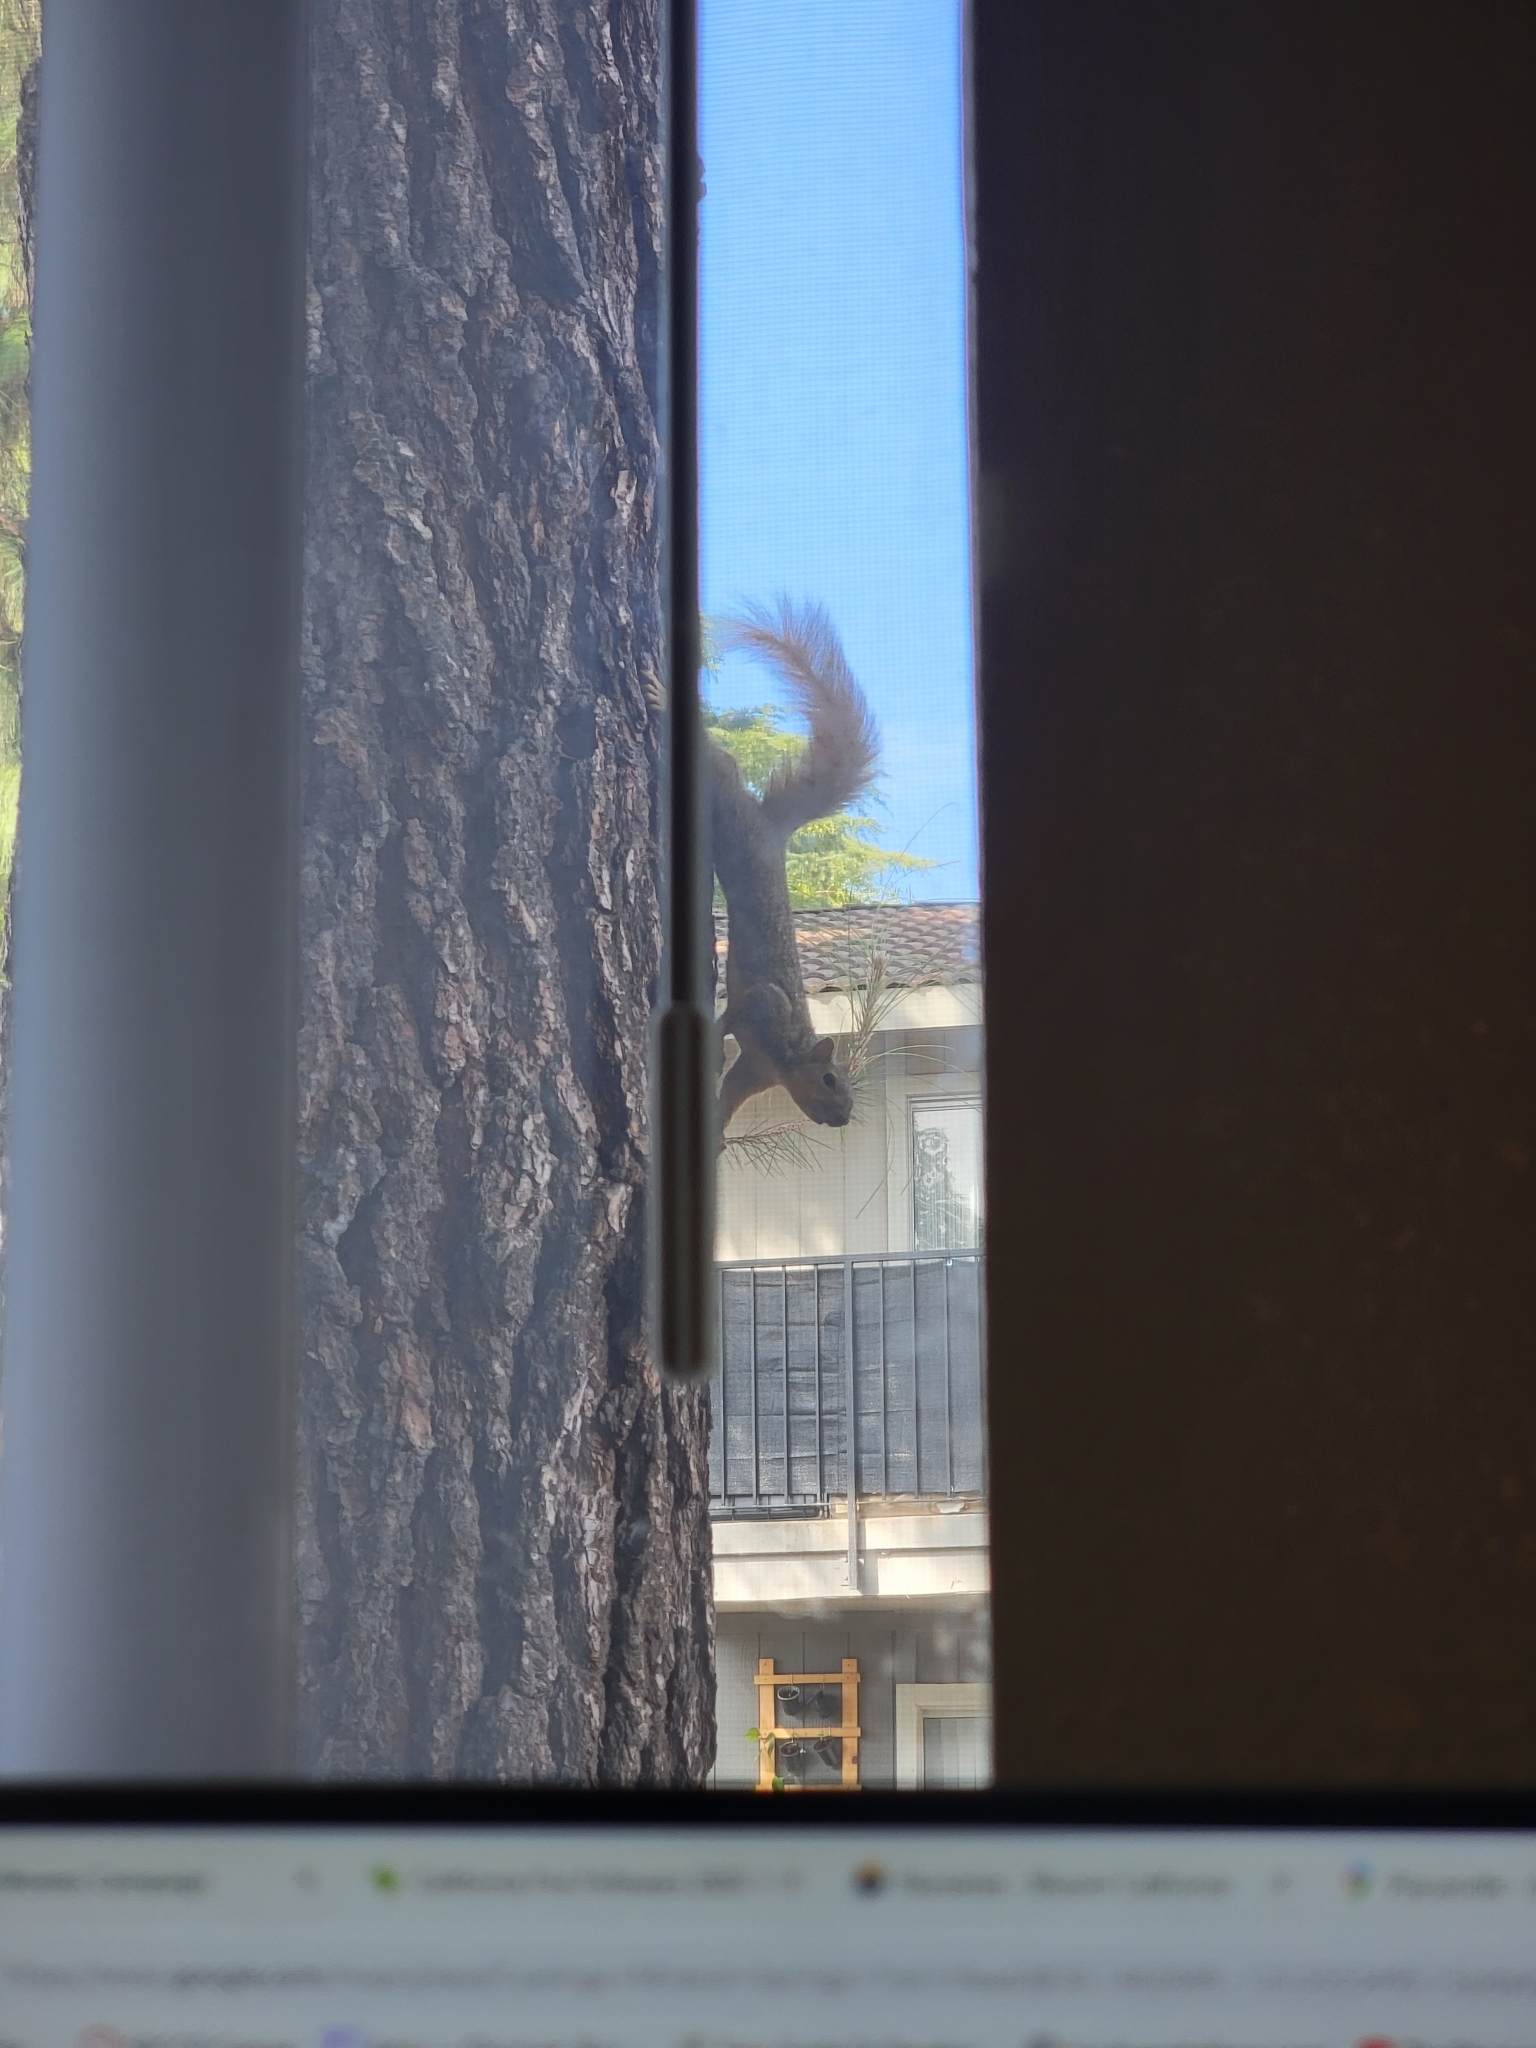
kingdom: Animalia
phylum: Chordata
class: Mammalia
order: Rodentia
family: Sciuridae
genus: Sciurus
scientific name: Sciurus niger
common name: Fox squirrel
